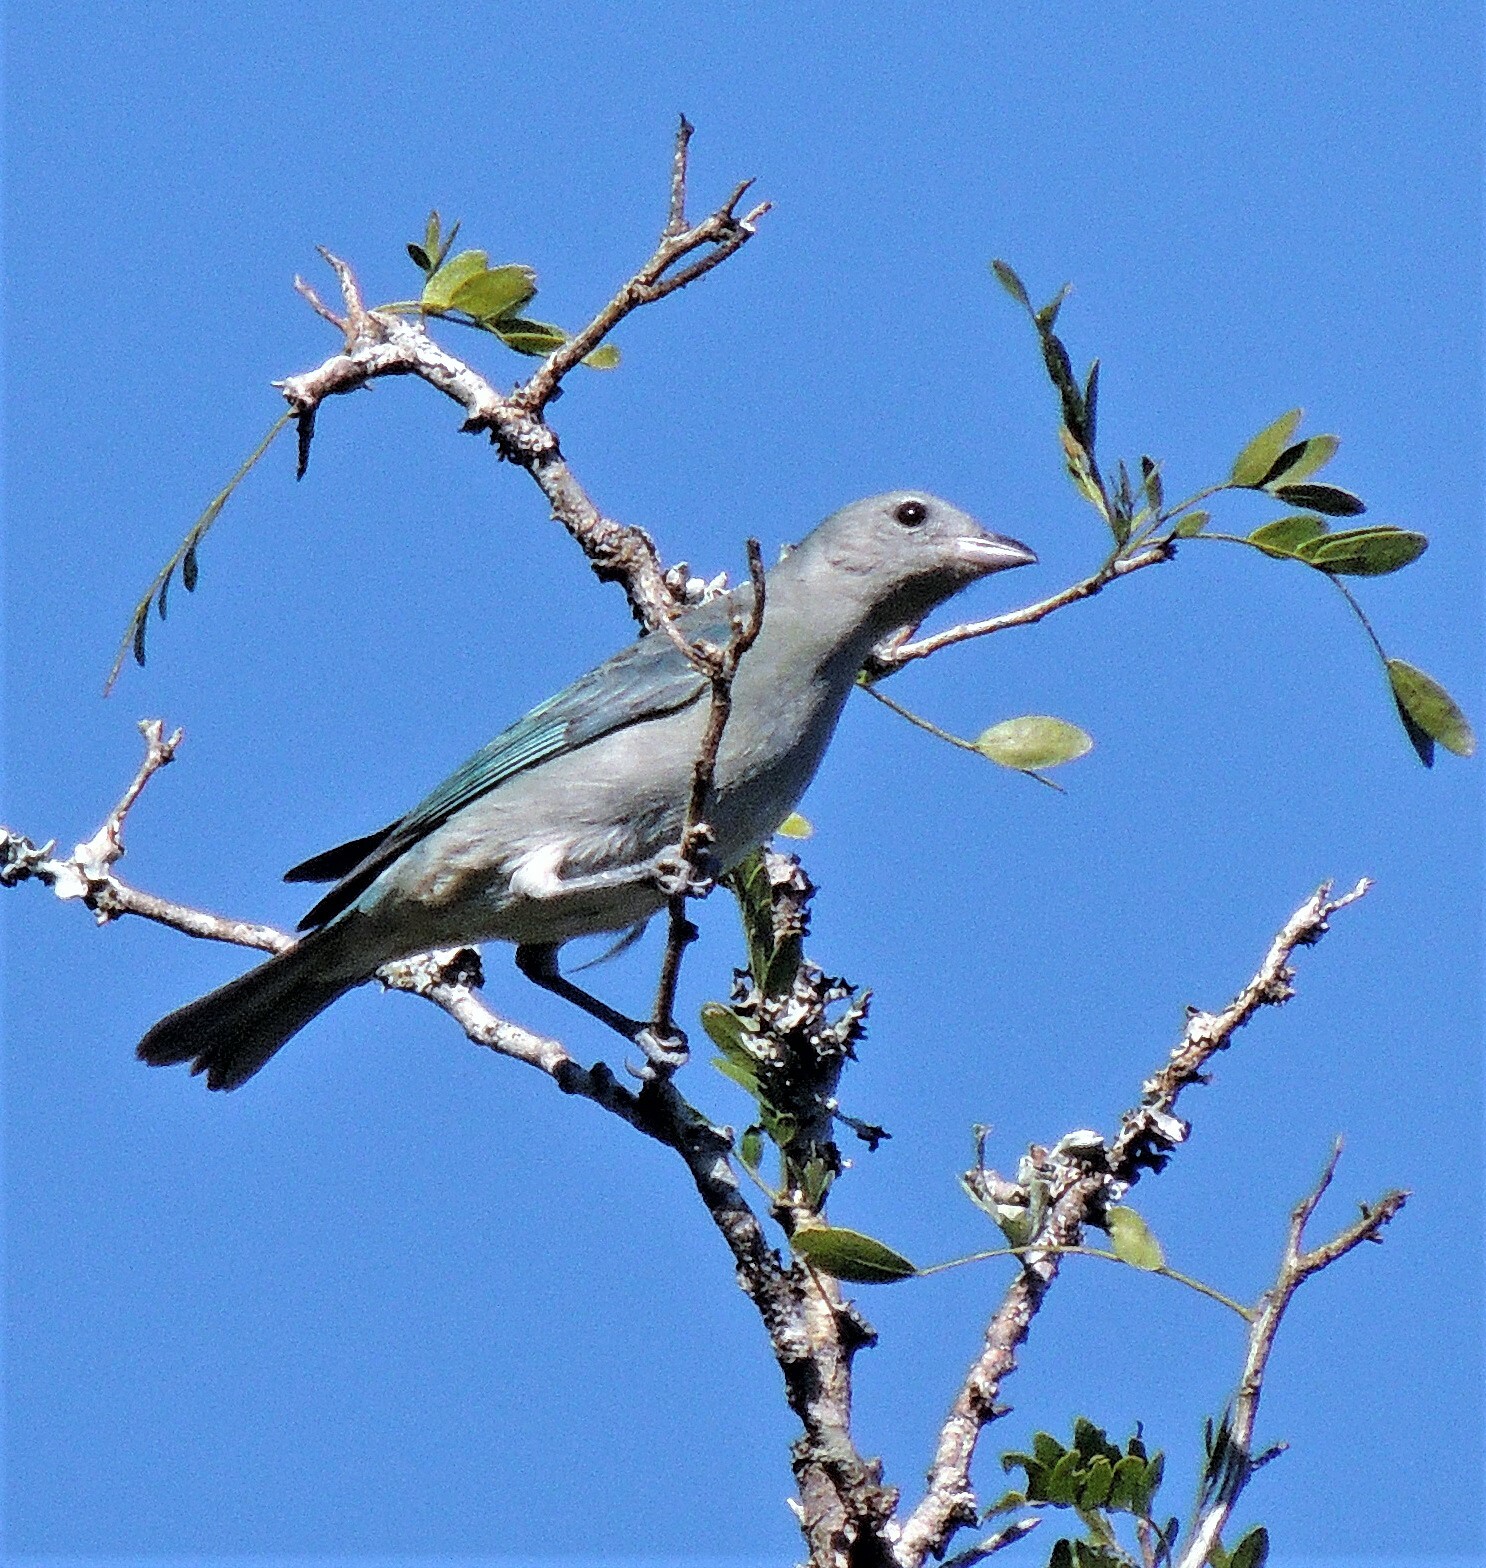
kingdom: Animalia
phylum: Chordata
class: Aves
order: Passeriformes
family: Thraupidae
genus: Thraupis
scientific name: Thraupis sayaca
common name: Sayaca tanager
